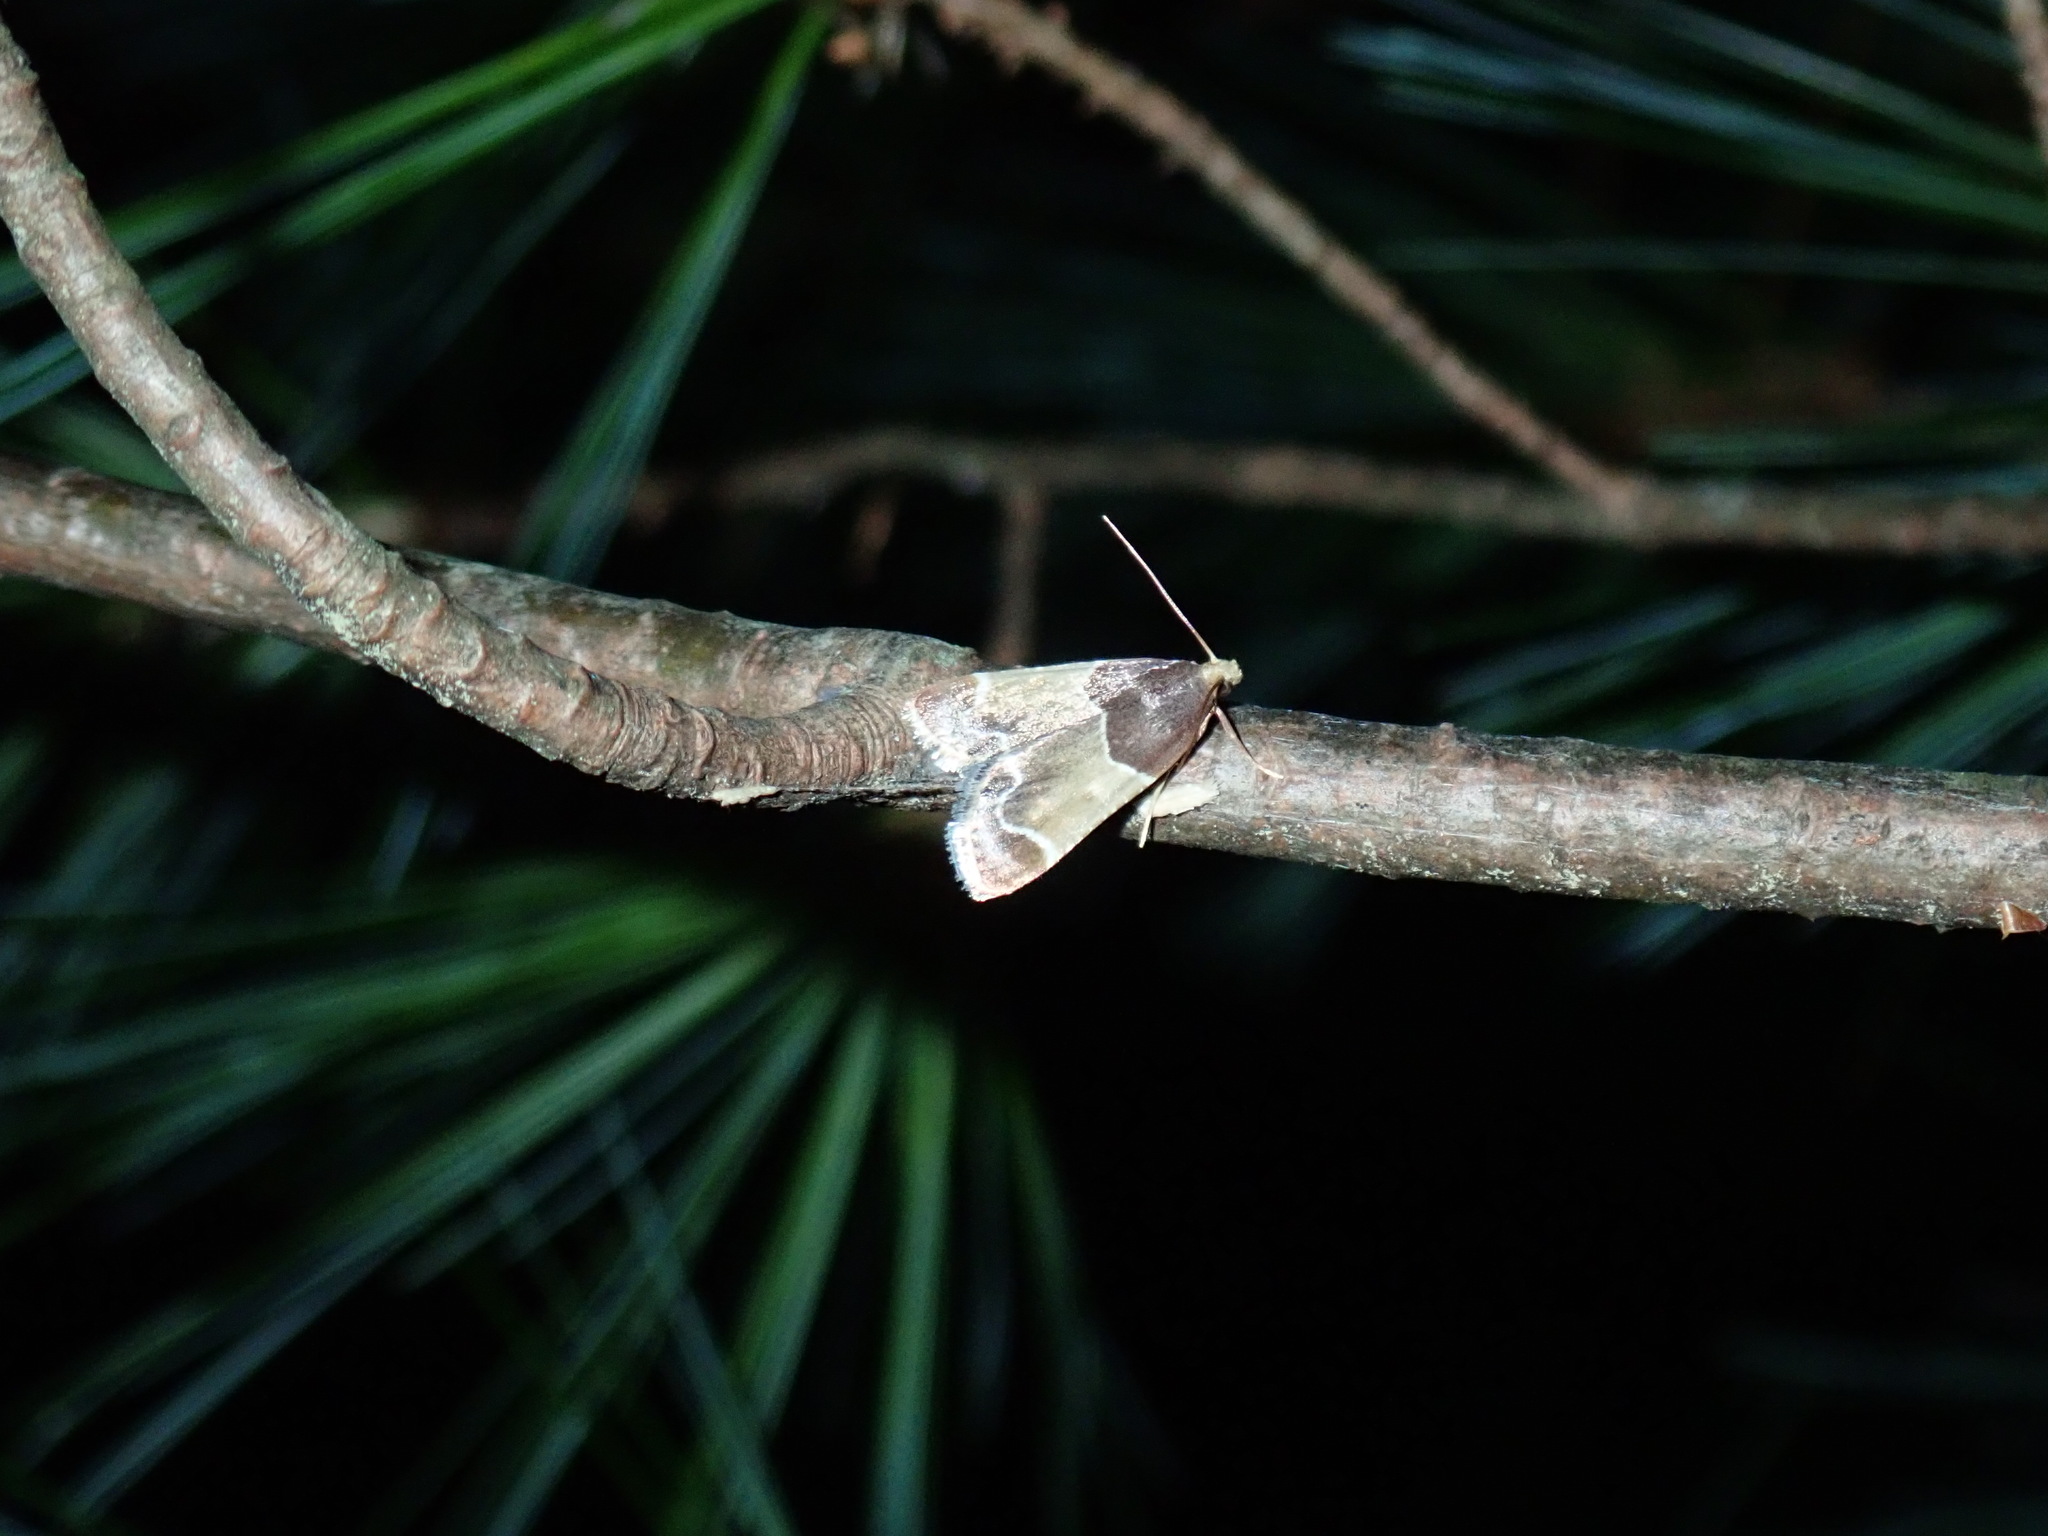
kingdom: Animalia
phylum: Arthropoda
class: Insecta
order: Lepidoptera
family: Pyralidae
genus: Pyralis
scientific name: Pyralis farinalis
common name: Meal moth
